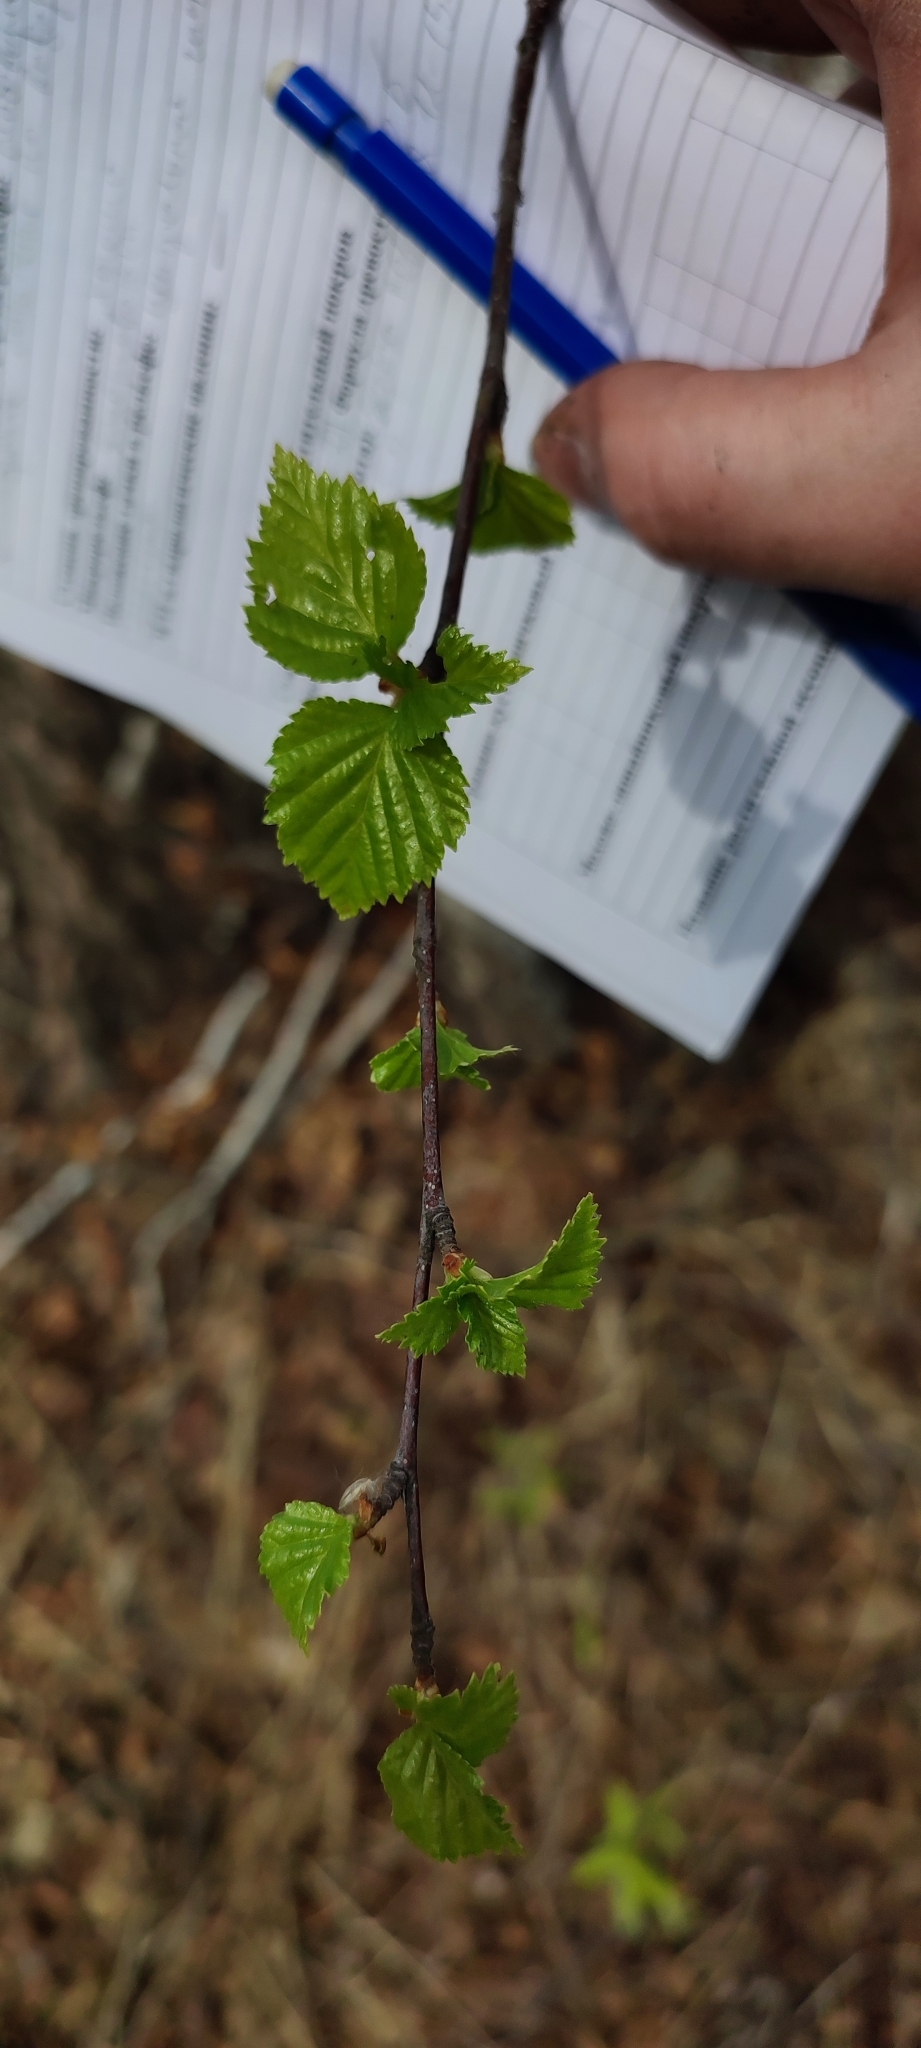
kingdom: Plantae
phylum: Tracheophyta
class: Magnoliopsida
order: Fagales
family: Betulaceae
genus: Betula
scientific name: Betula pendula
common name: Silver birch
